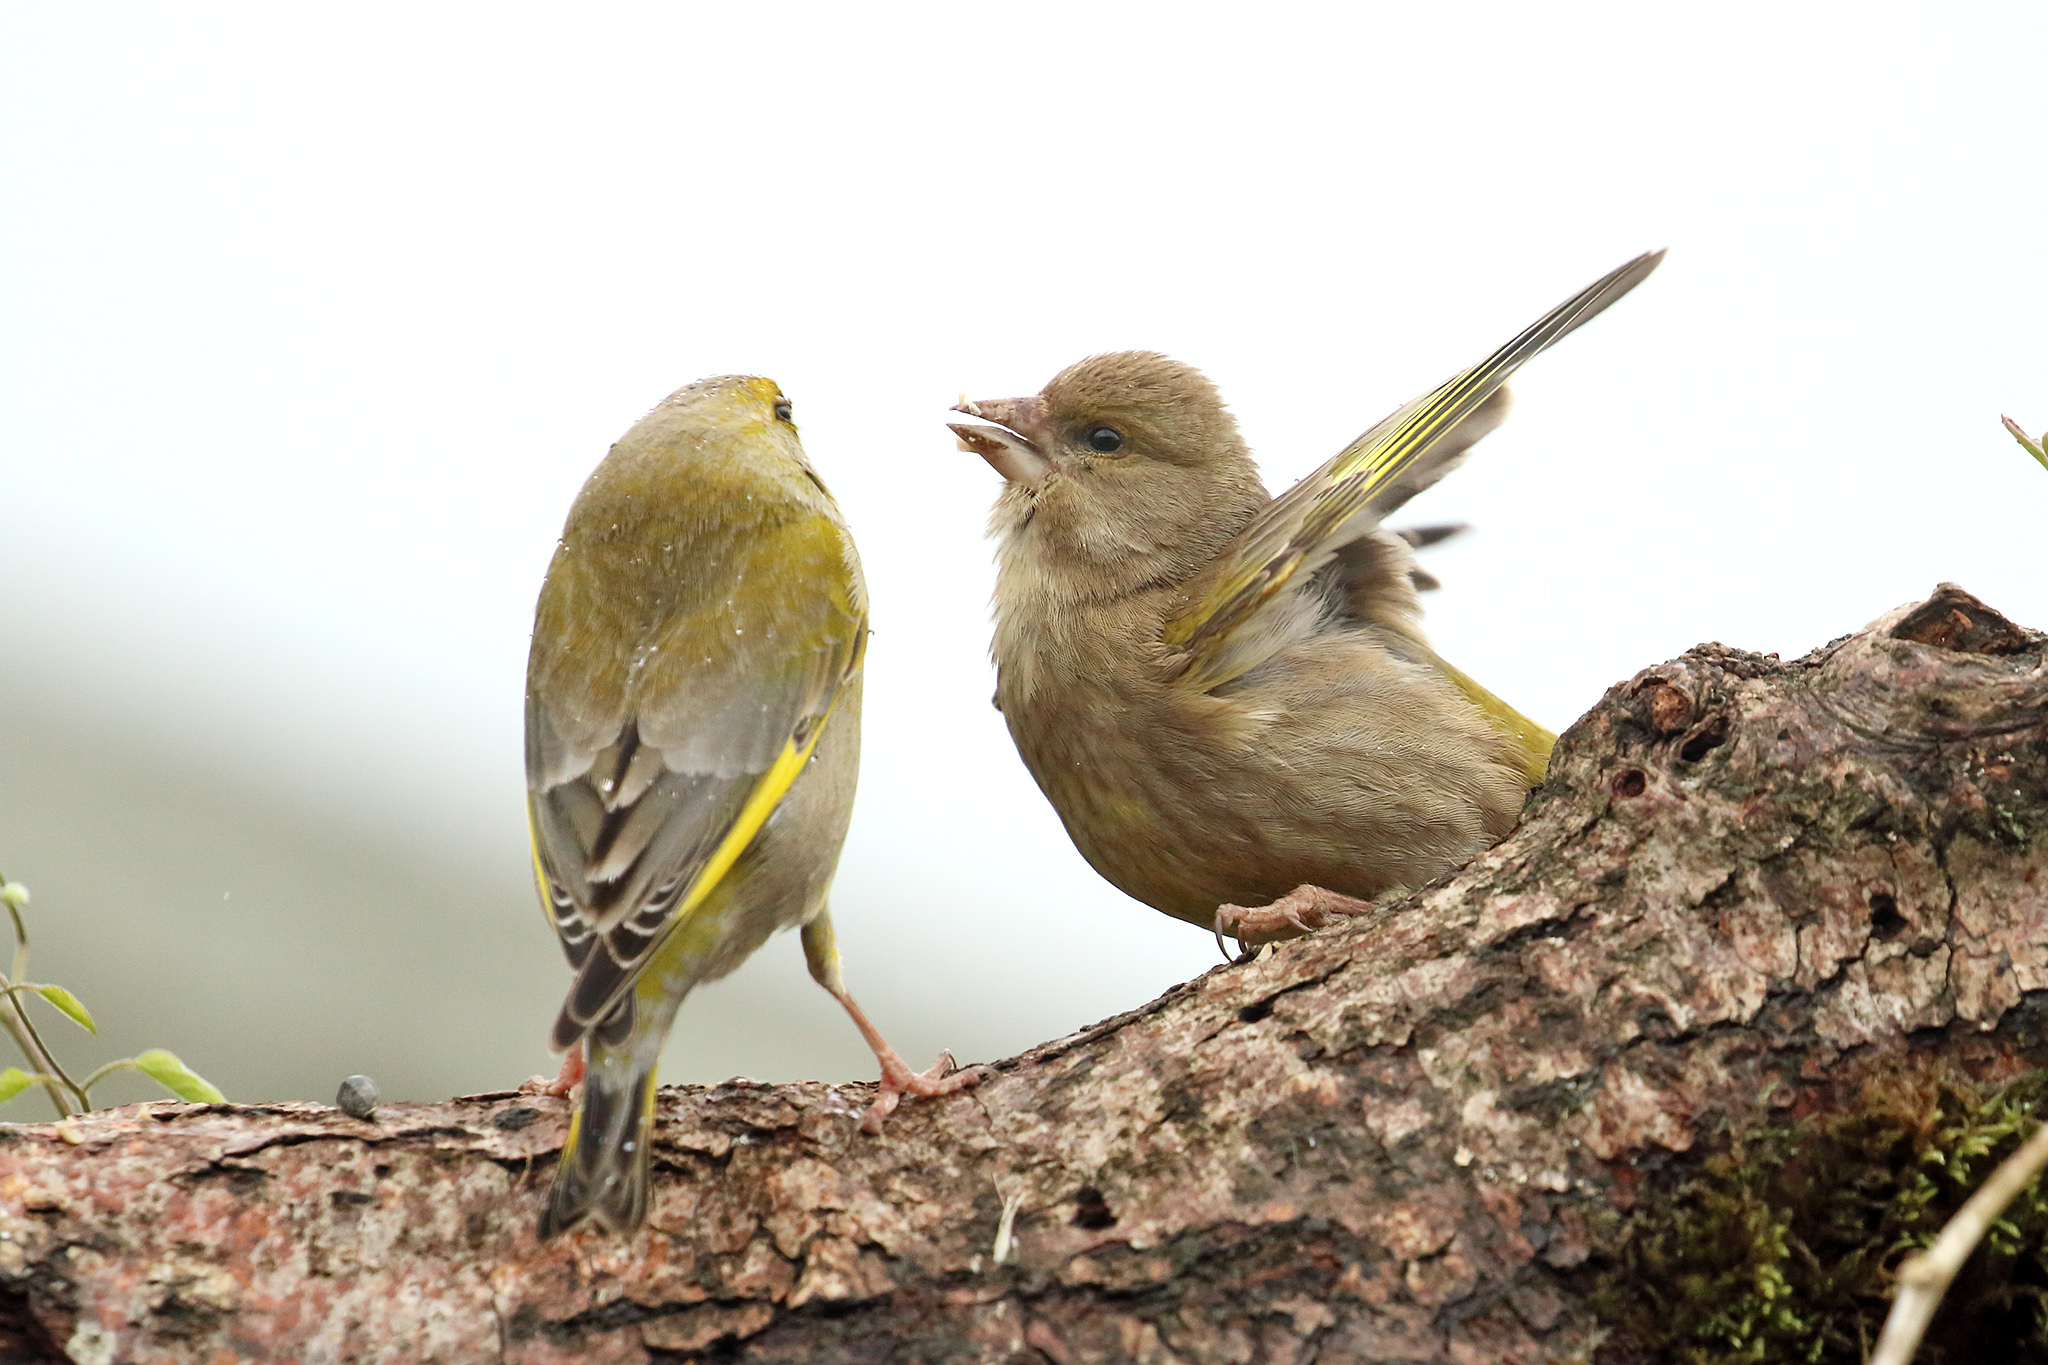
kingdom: Plantae
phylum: Tracheophyta
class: Liliopsida
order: Poales
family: Poaceae
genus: Chloris
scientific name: Chloris chloris
